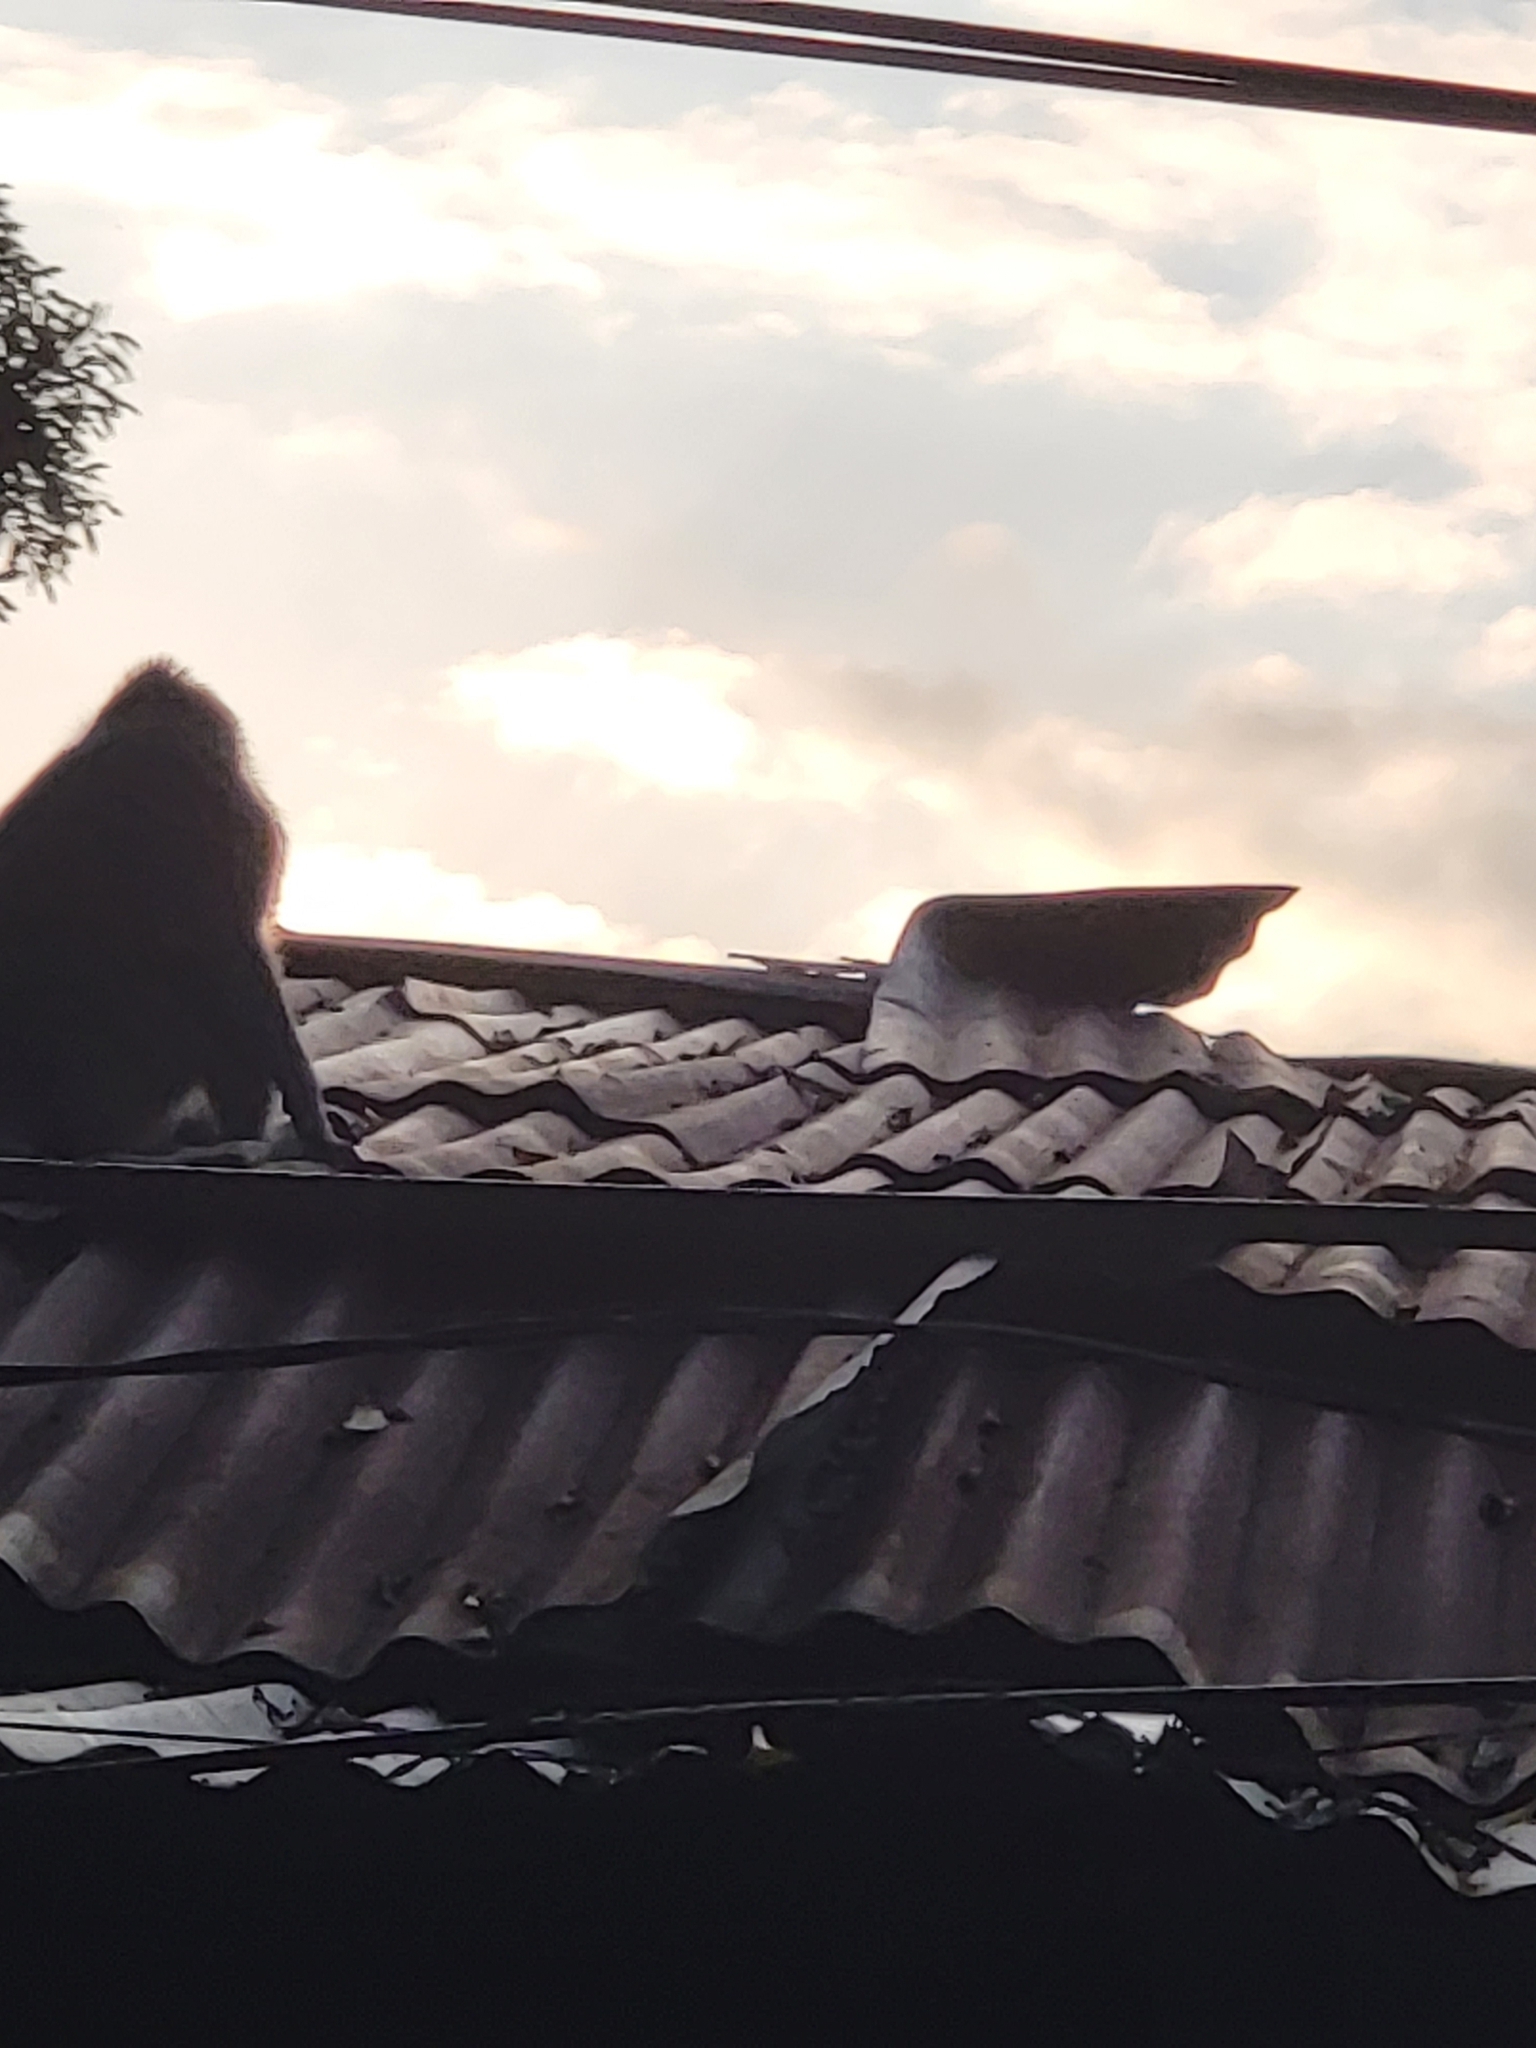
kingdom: Animalia
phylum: Chordata
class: Mammalia
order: Primates
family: Cercopithecidae
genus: Macaca
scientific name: Macaca fascicularis
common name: Crab-eating macaque
